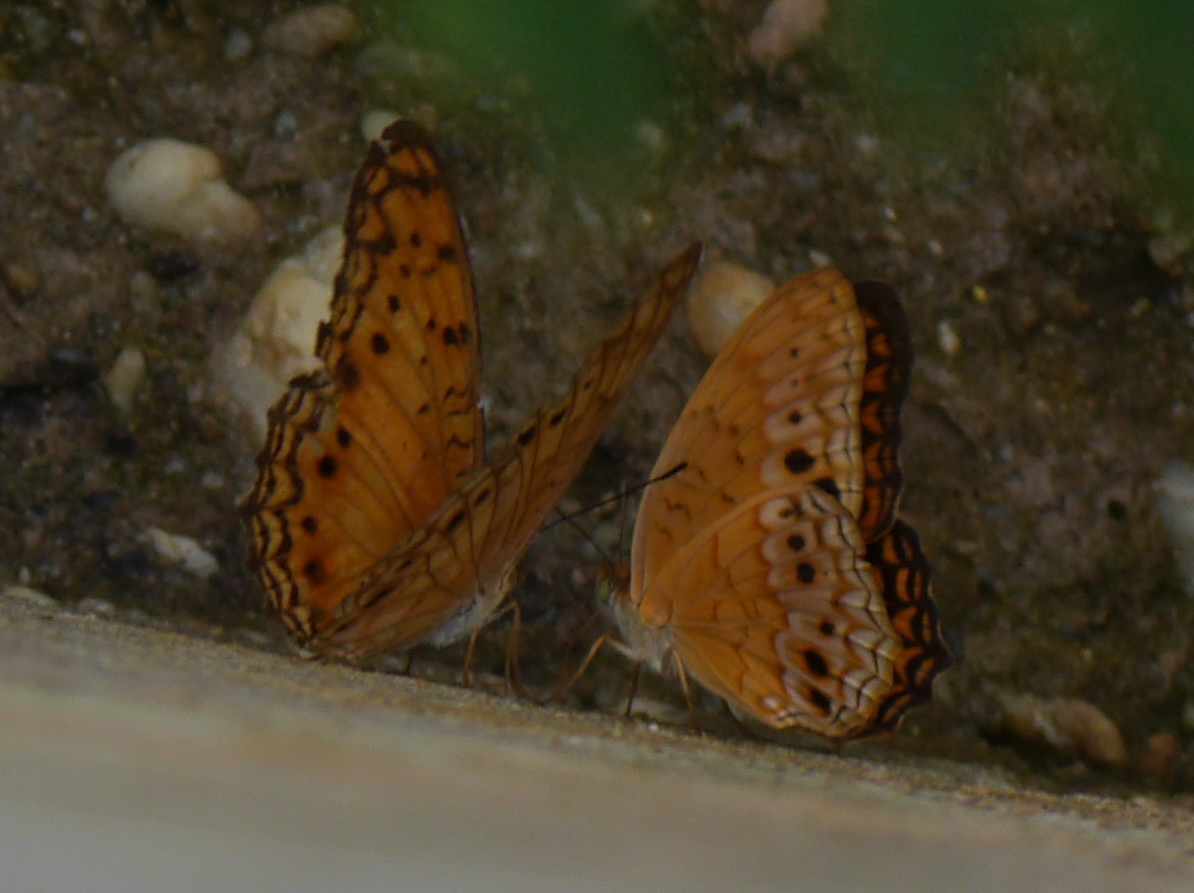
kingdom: Animalia
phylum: Arthropoda
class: Insecta
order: Lepidoptera
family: Nymphalidae
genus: Phalanta
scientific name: Phalanta columbina
